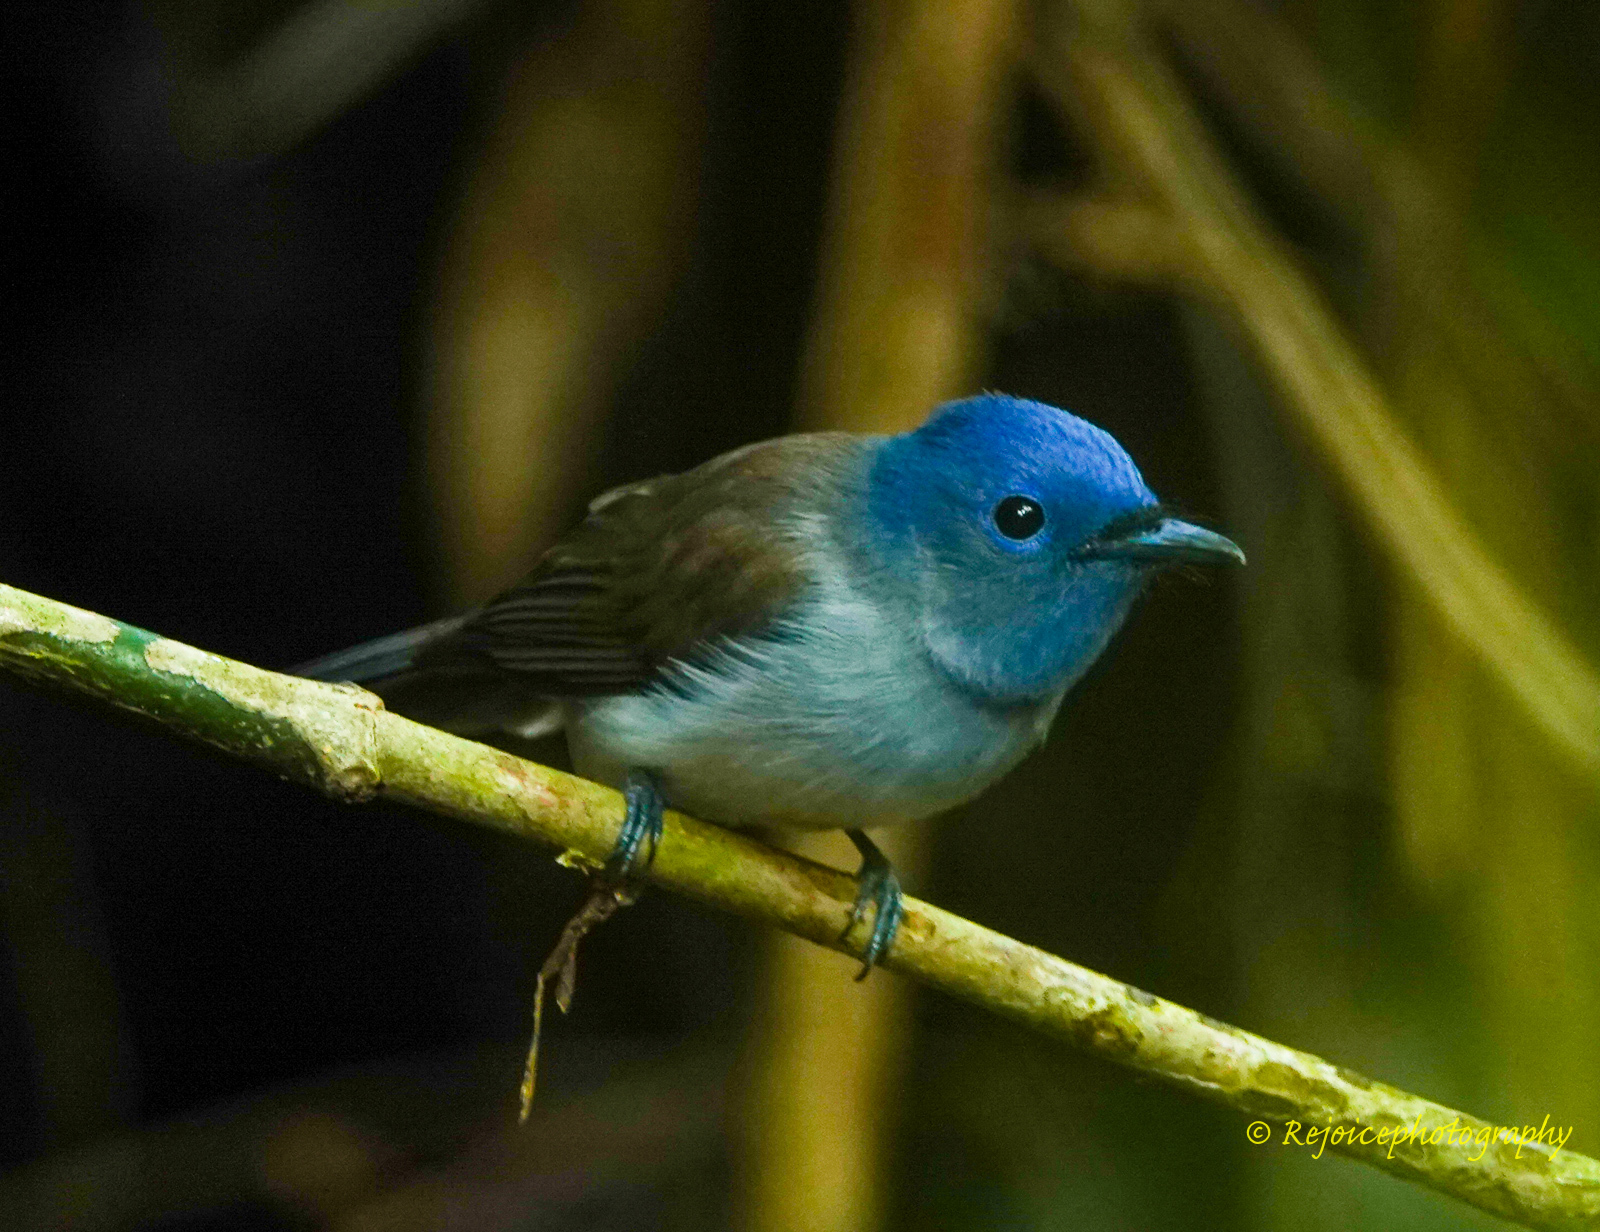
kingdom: Animalia
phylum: Chordata
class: Aves
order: Passeriformes
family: Monarchidae
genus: Hypothymis
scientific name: Hypothymis azurea
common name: Black-naped monarch
